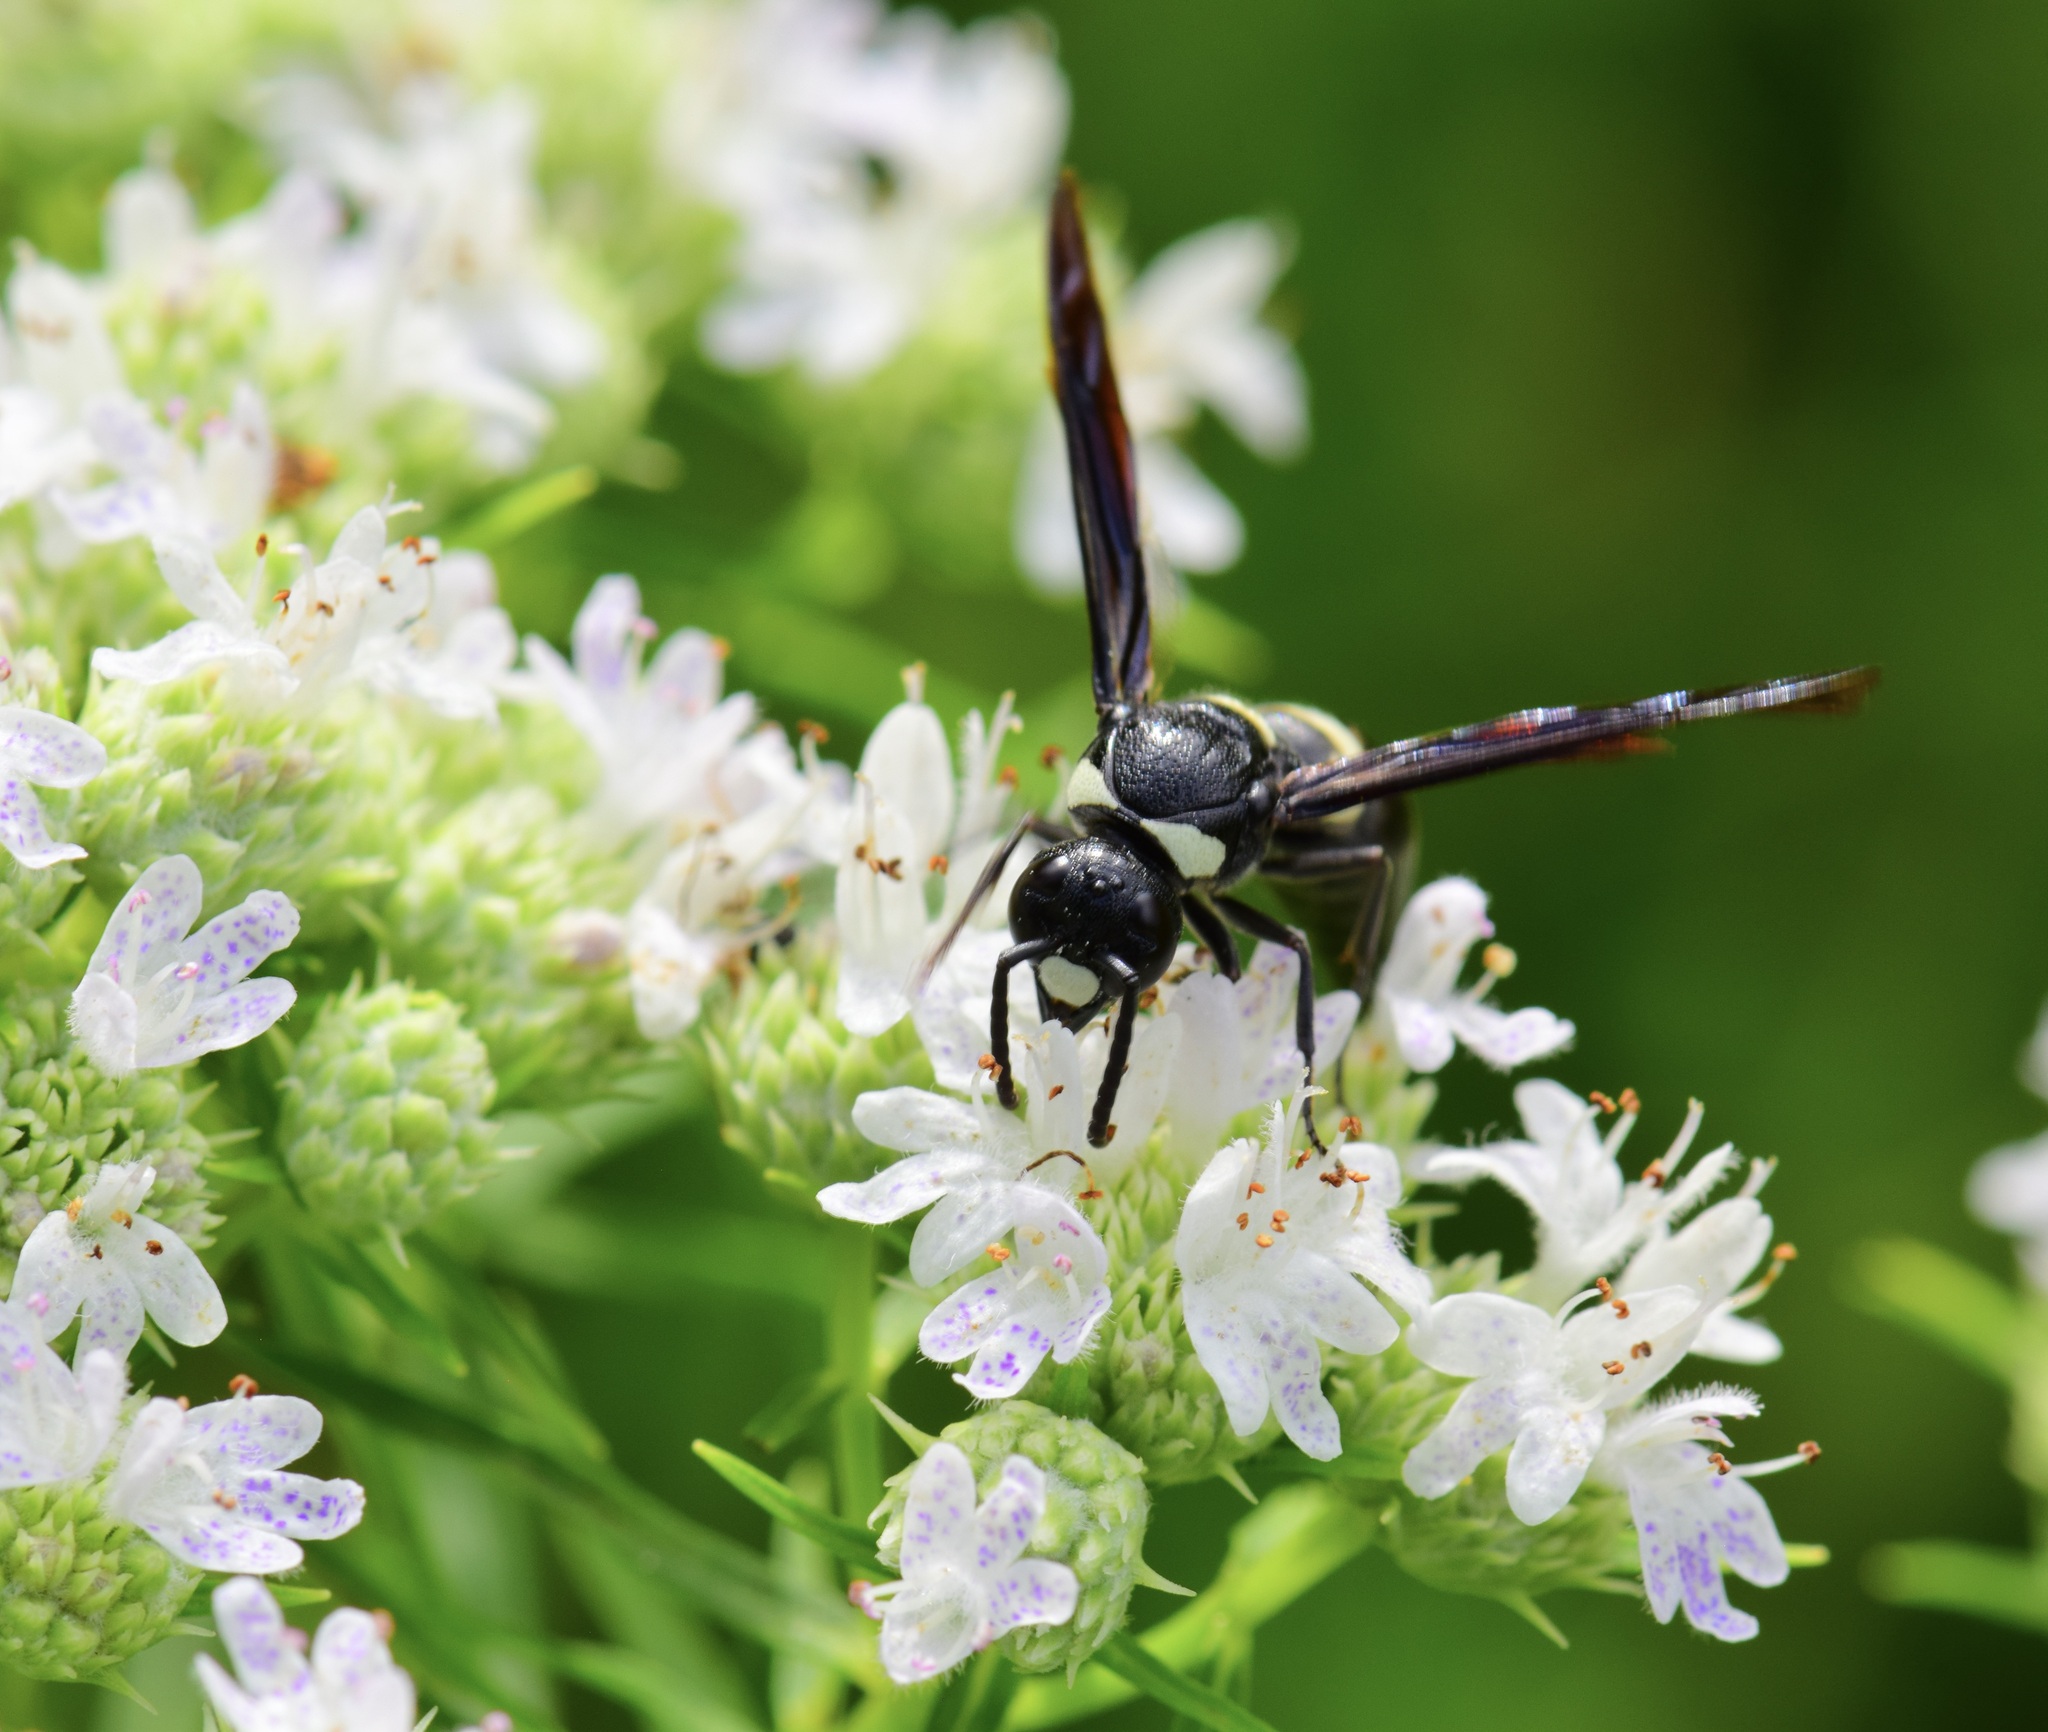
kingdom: Animalia
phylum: Arthropoda
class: Insecta
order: Hymenoptera
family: Eumenidae
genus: Monobia
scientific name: Monobia quadridens
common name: Four-toothed mason wasp
